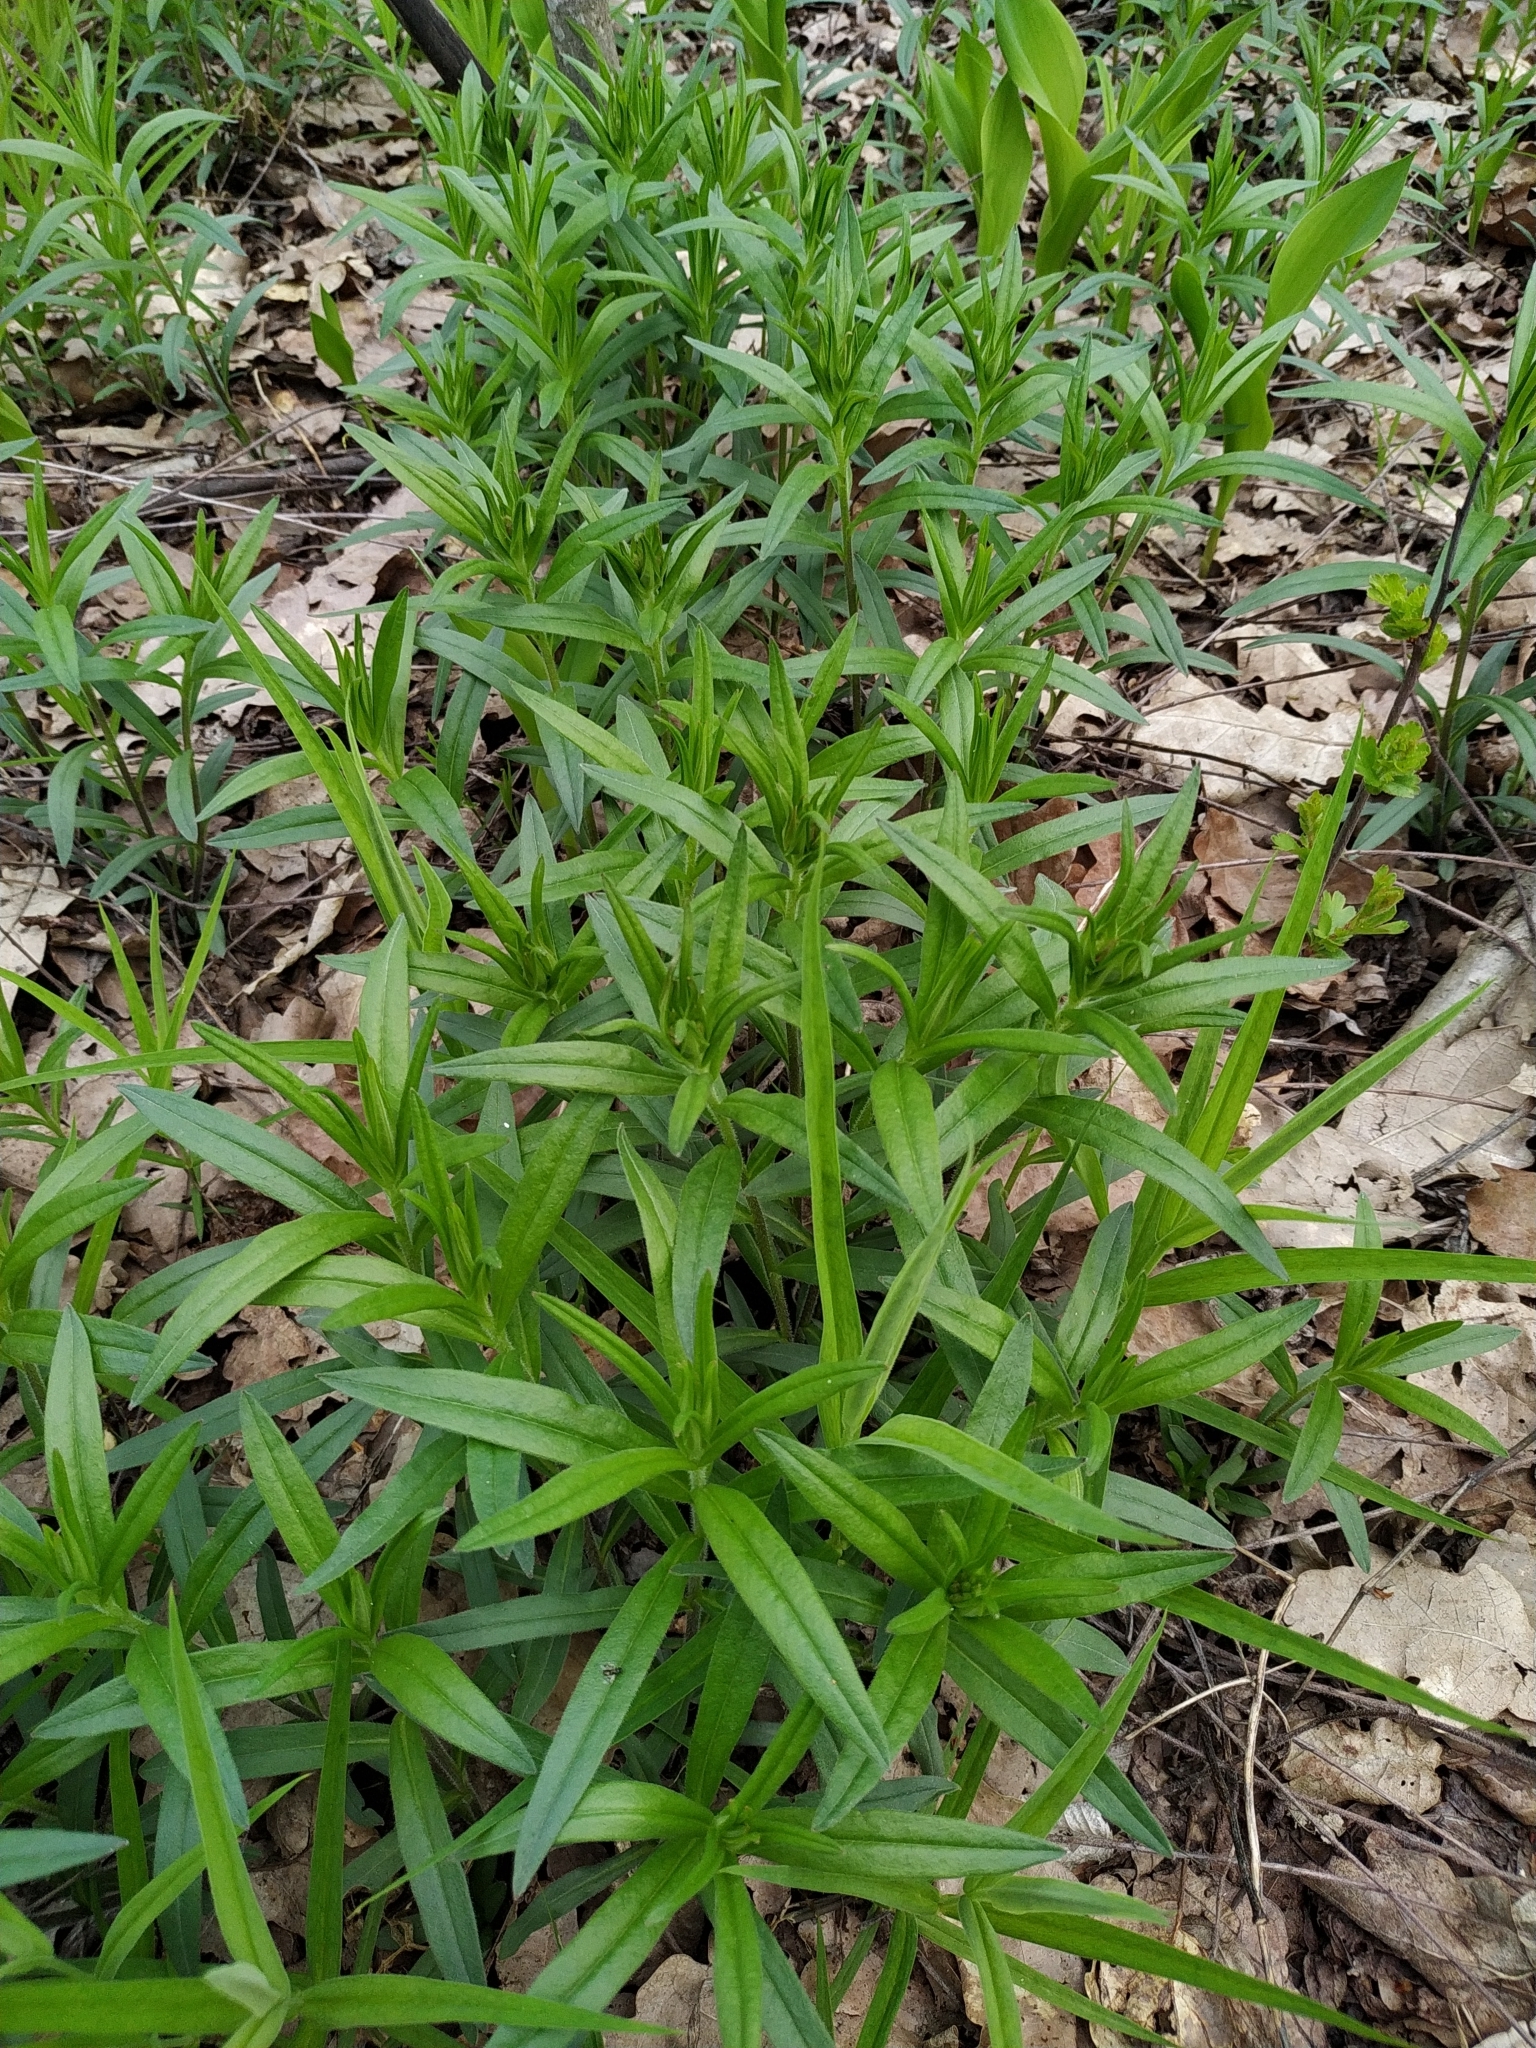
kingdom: Plantae
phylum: Tracheophyta
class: Magnoliopsida
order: Caryophyllales
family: Caryophyllaceae
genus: Rabelera
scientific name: Rabelera holostea
